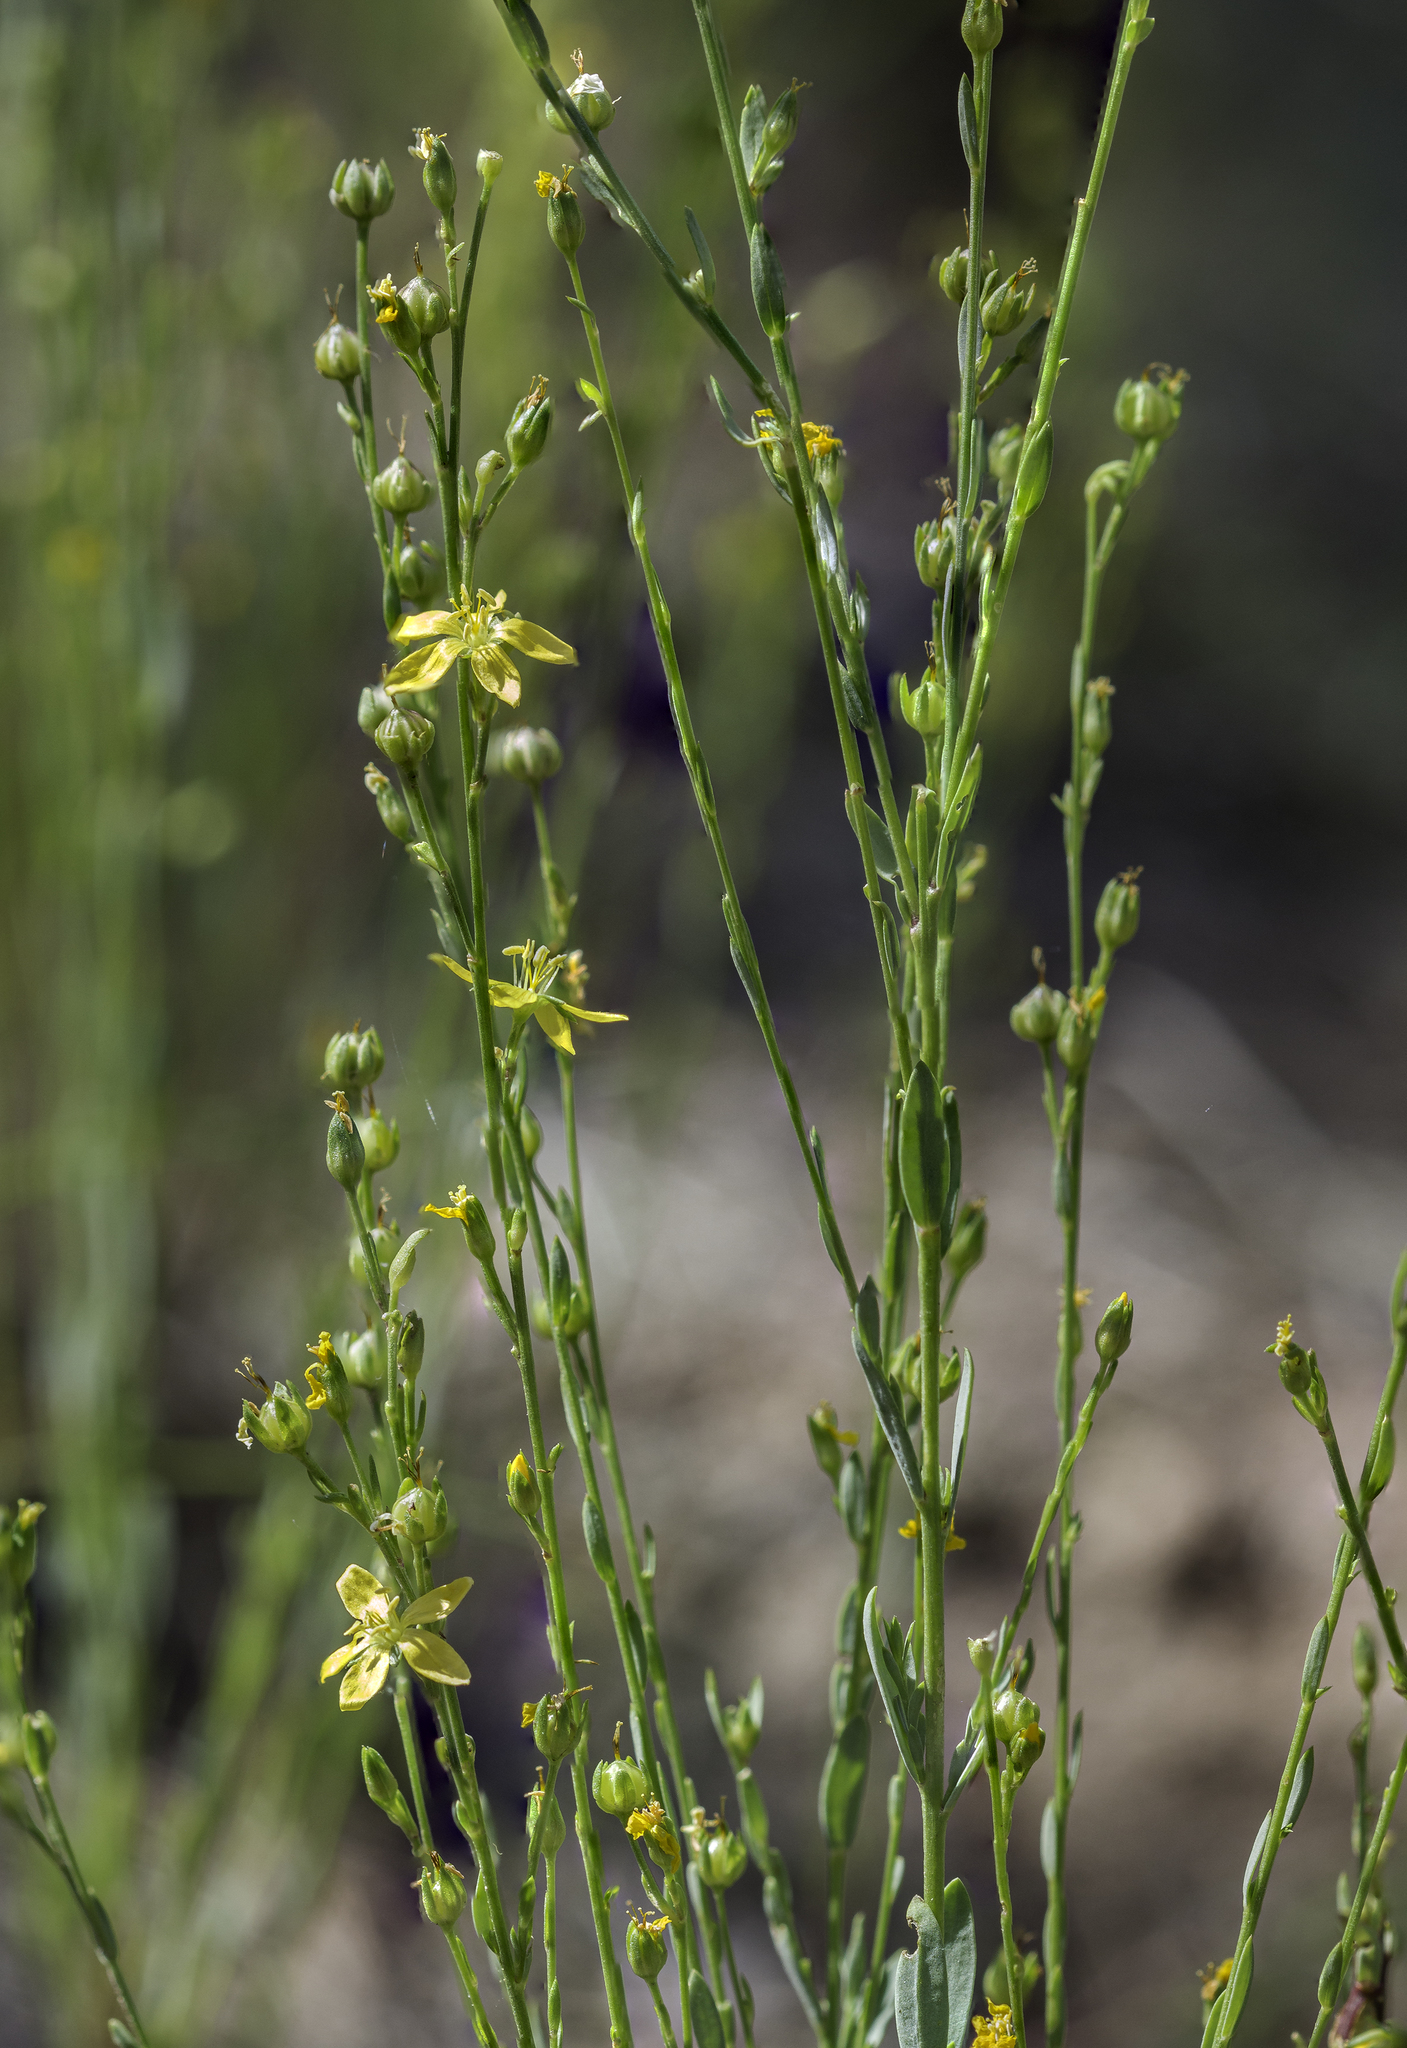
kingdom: Plantae
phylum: Tracheophyta
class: Magnoliopsida
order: Malpighiales
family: Linaceae
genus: Linum
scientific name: Linum neomexicanum
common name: New mexico yellow flax
